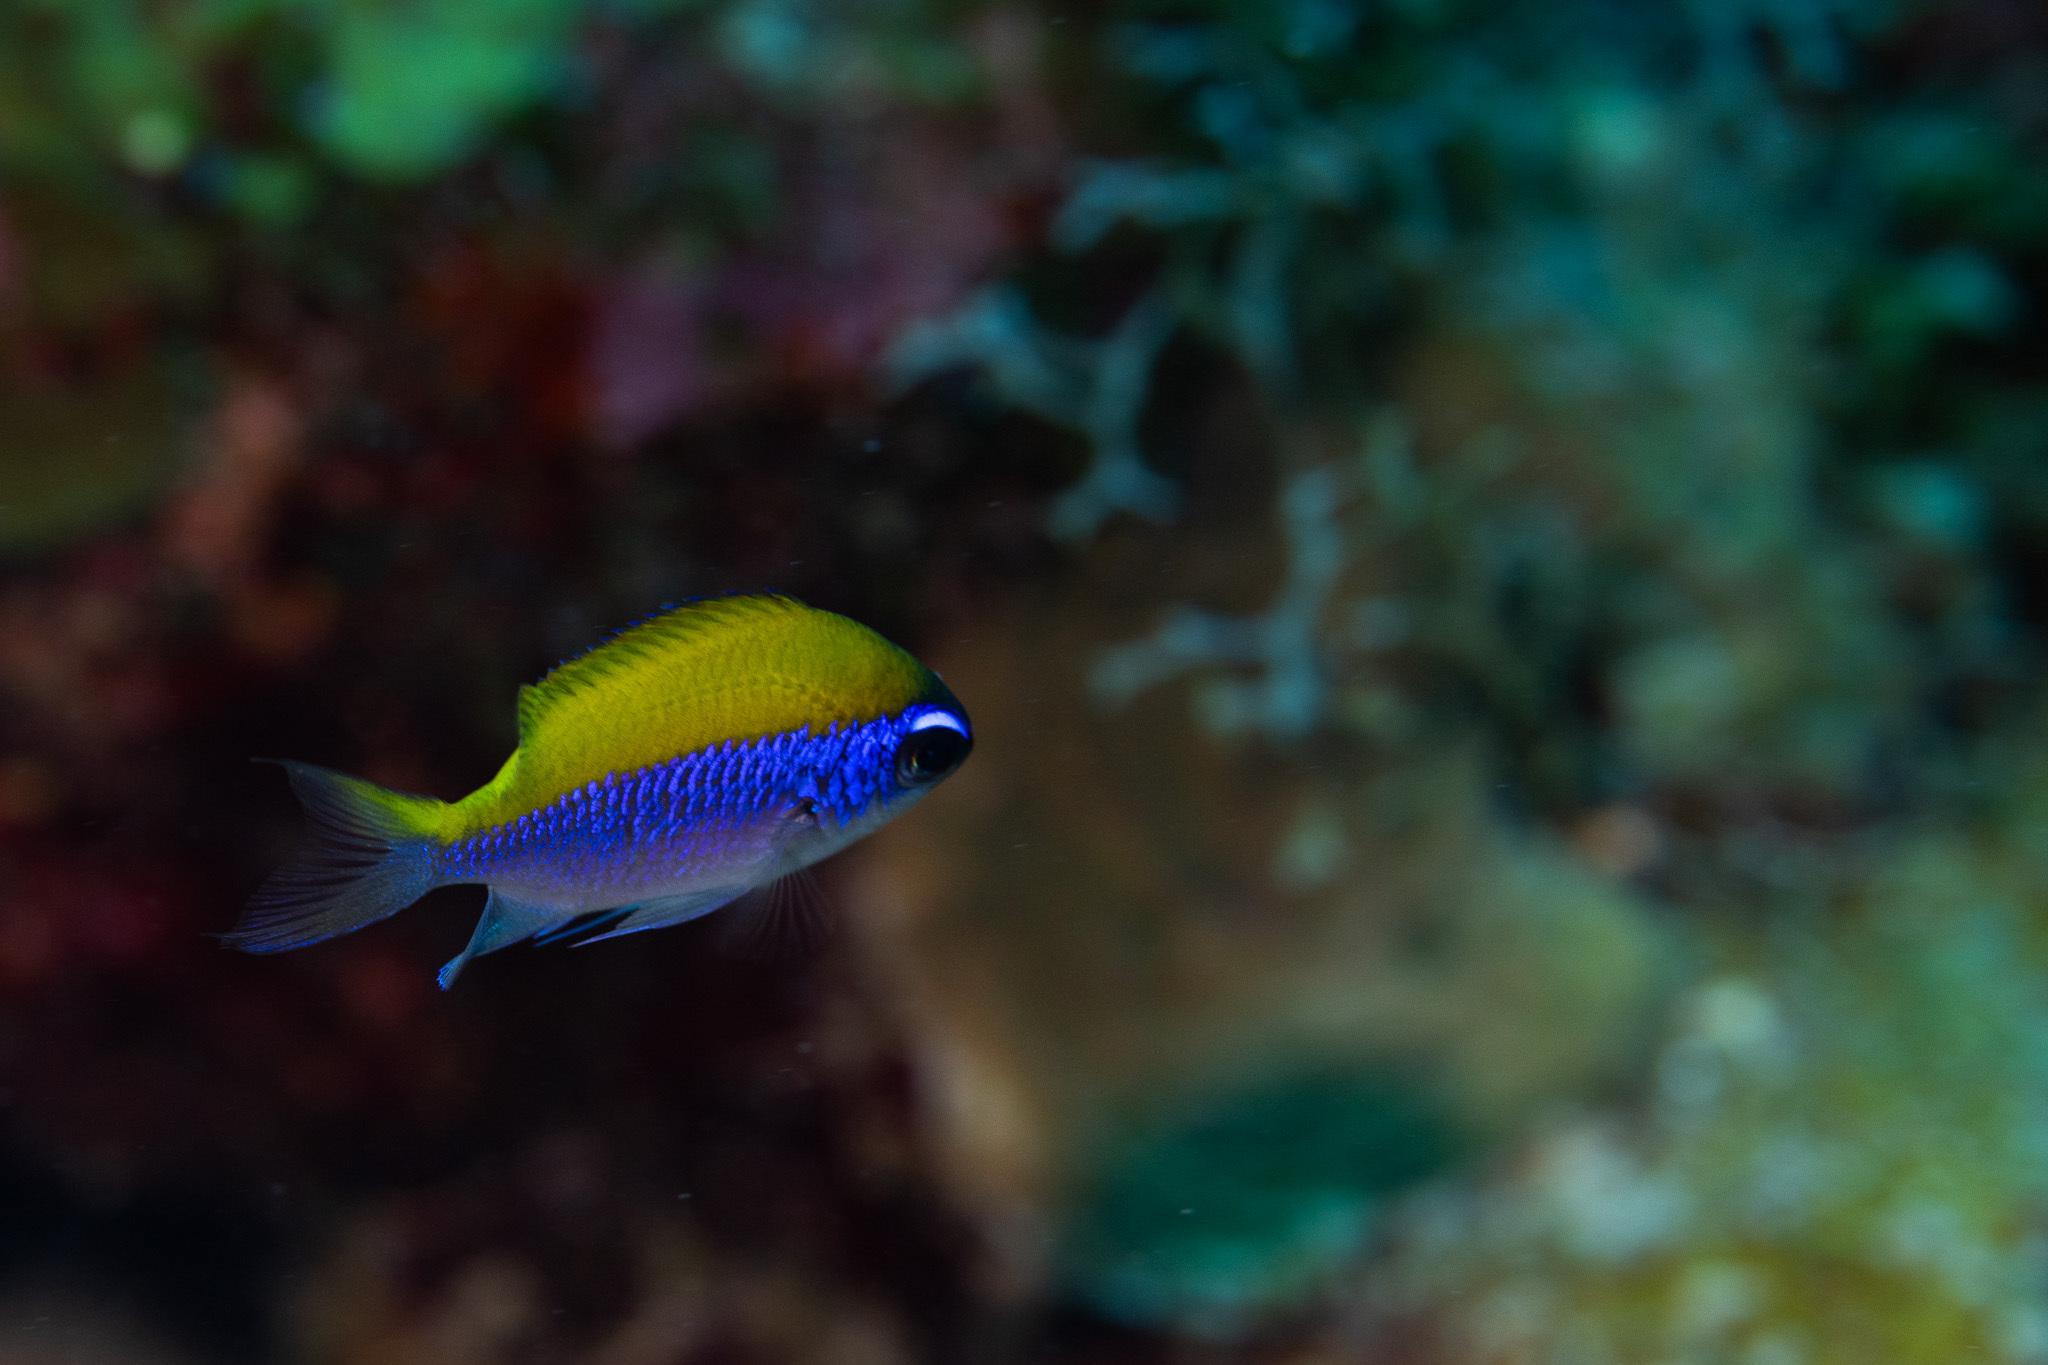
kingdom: Animalia
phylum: Chordata
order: Perciformes
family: Pomacentridae
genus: Chromis
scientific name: Chromis insolata
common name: Sunshinefish
